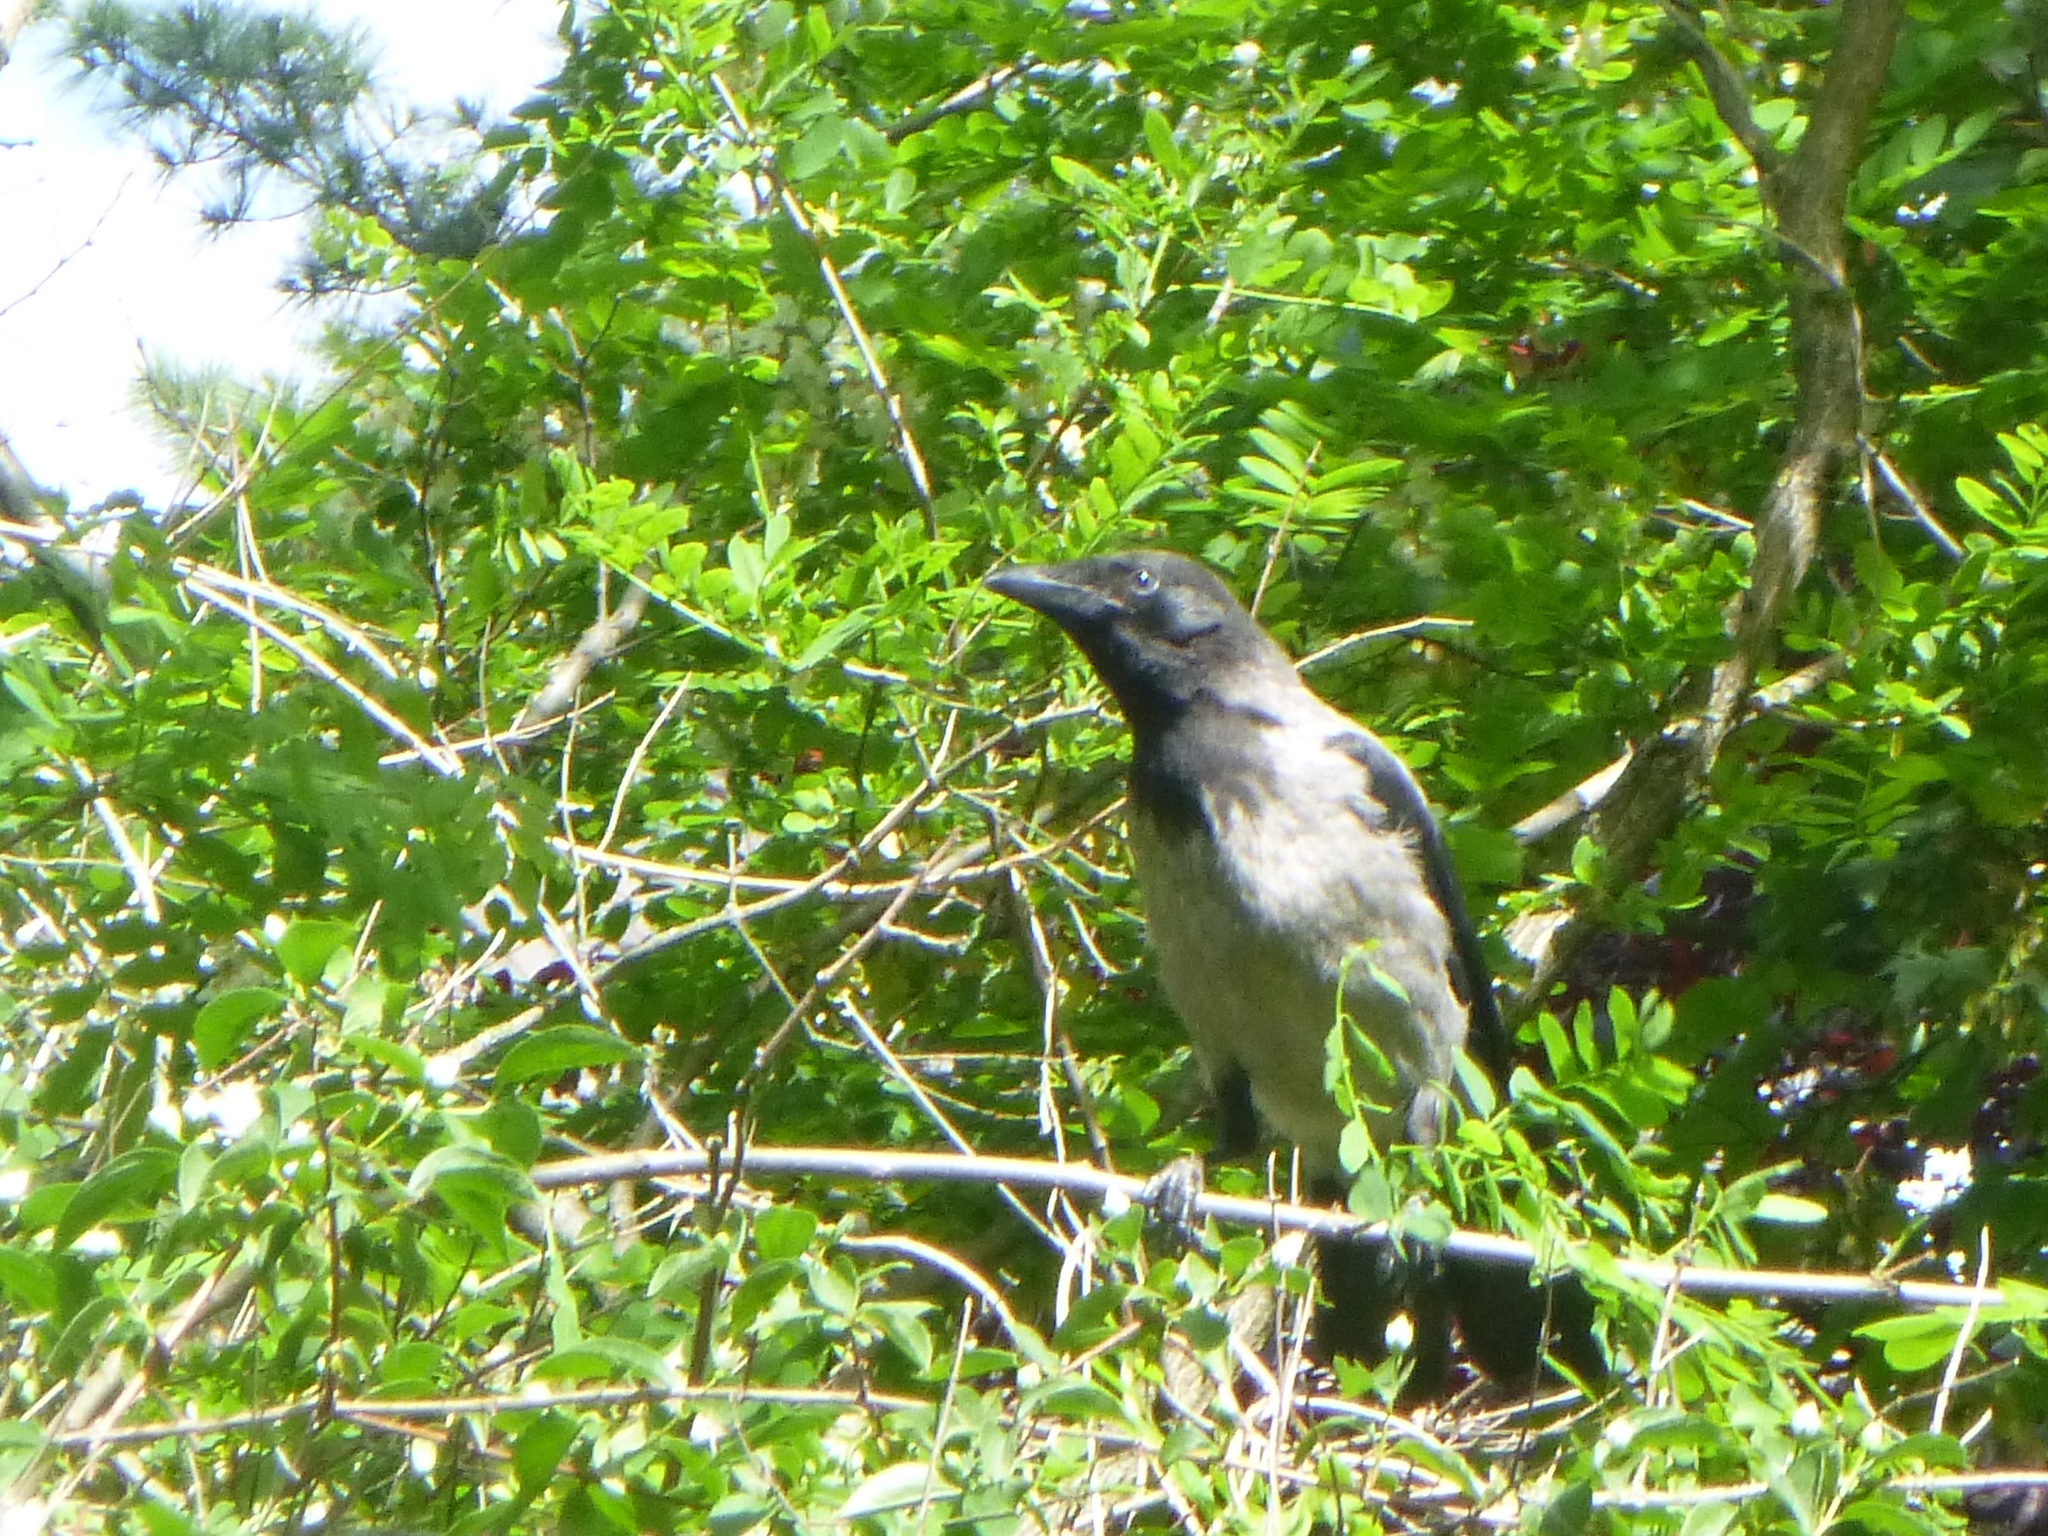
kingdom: Animalia
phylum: Chordata
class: Aves
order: Passeriformes
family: Corvidae
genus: Corvus
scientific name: Corvus cornix
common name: Hooded crow
